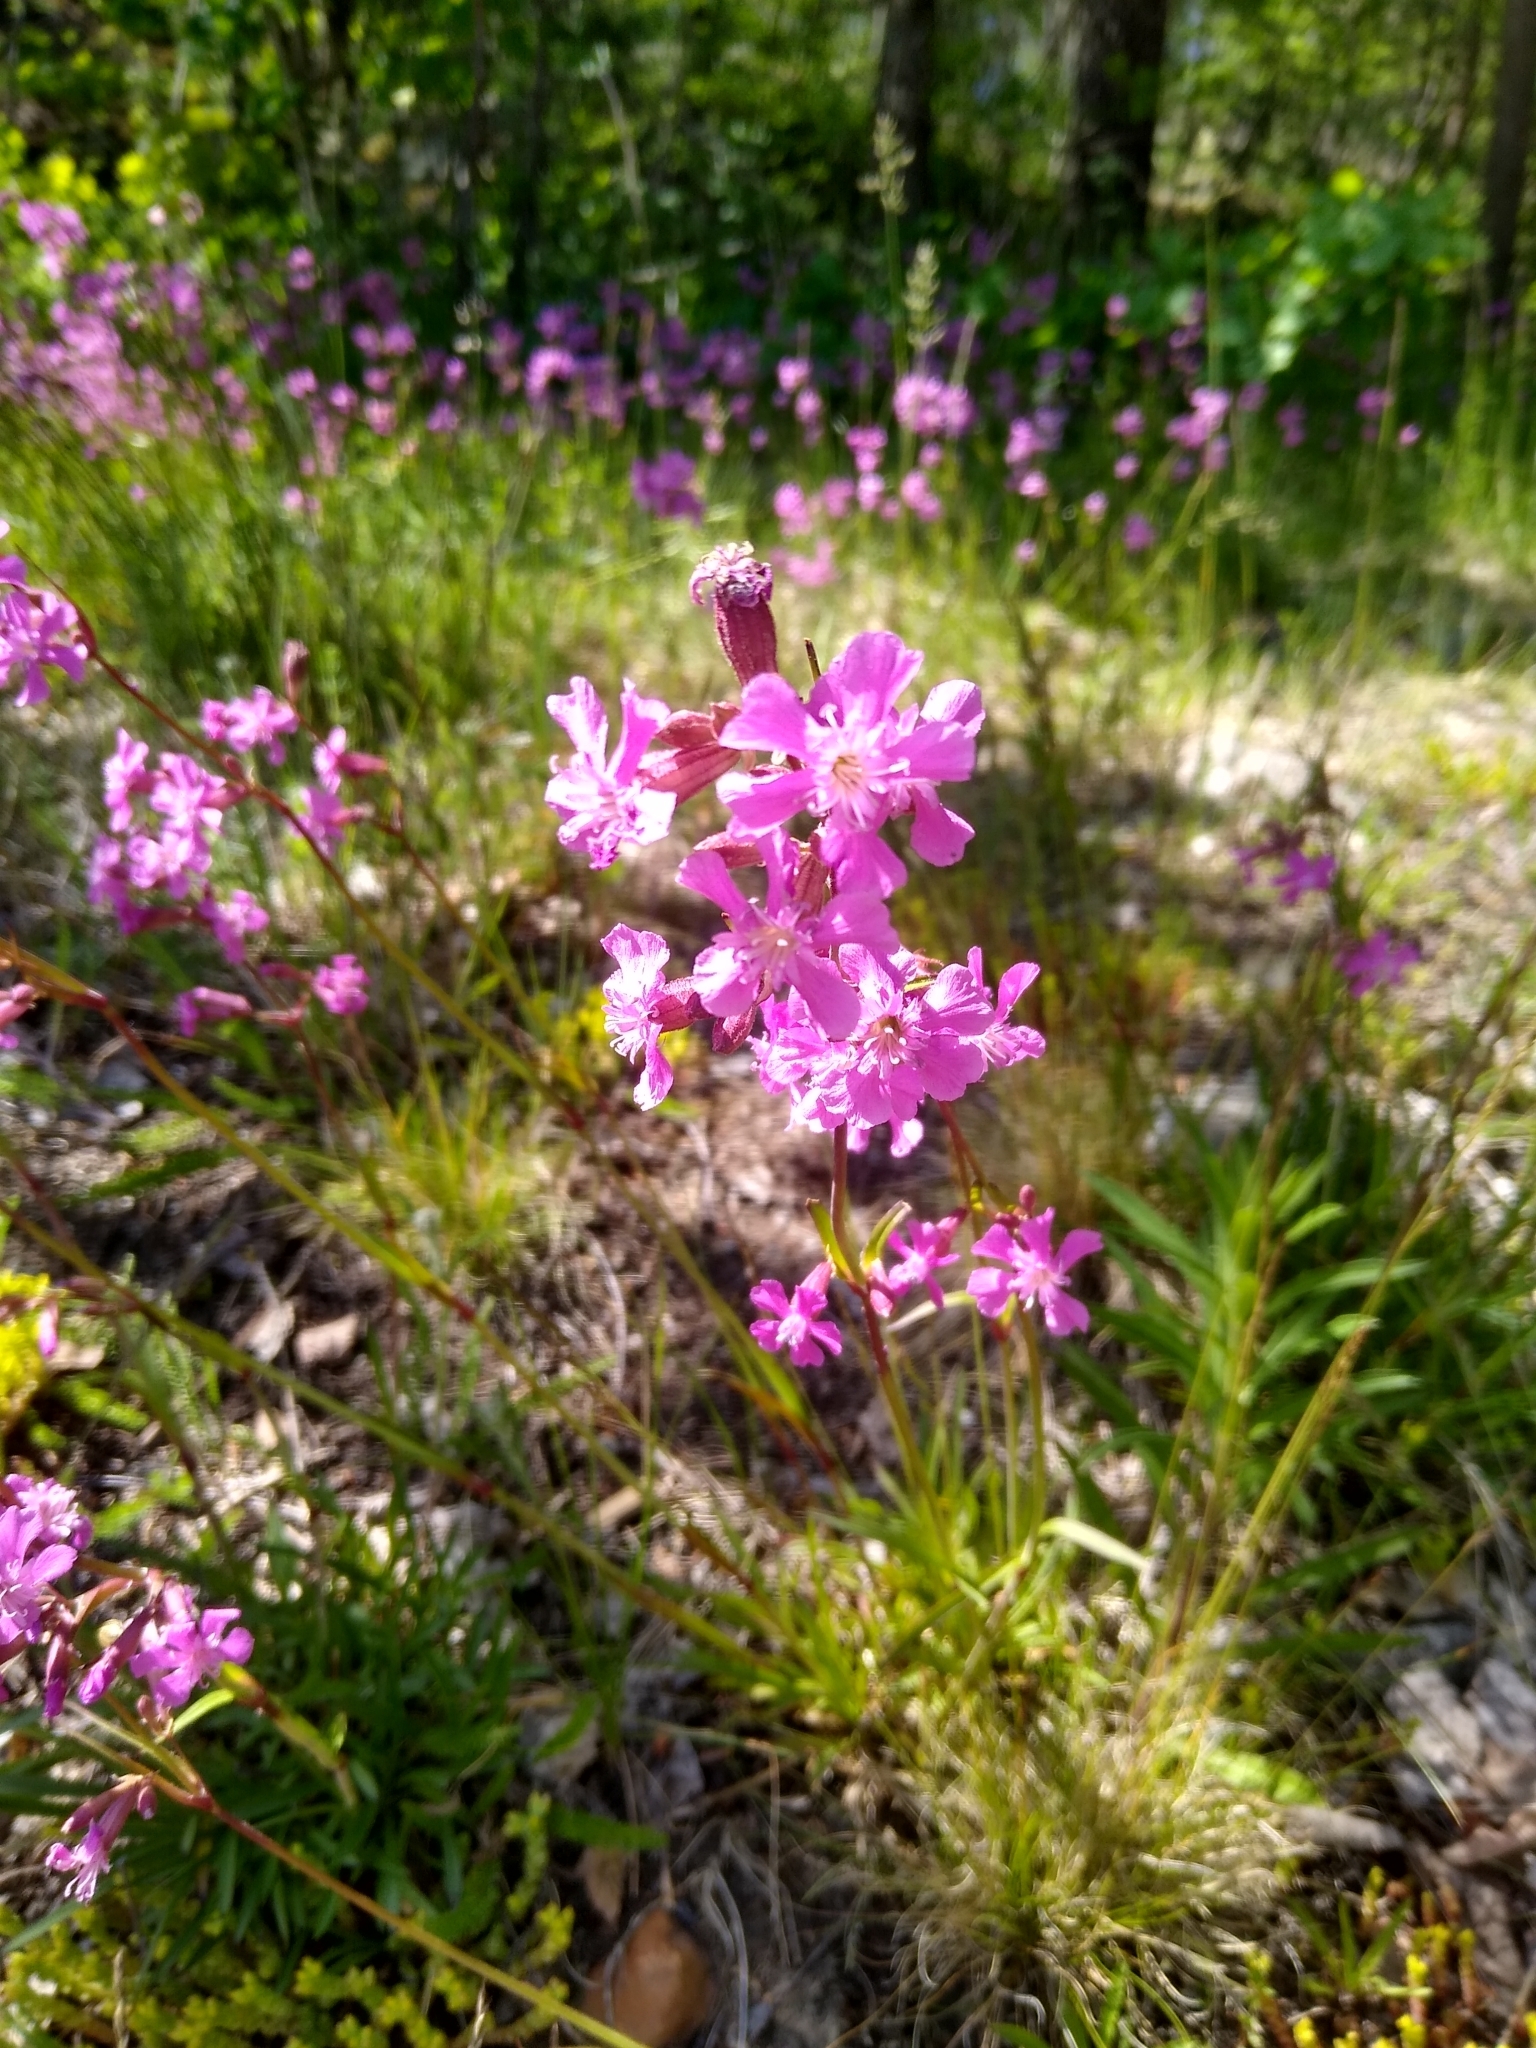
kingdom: Plantae
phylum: Tracheophyta
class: Magnoliopsida
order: Caryophyllales
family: Caryophyllaceae
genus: Viscaria
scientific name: Viscaria vulgaris
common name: Clammy campion
